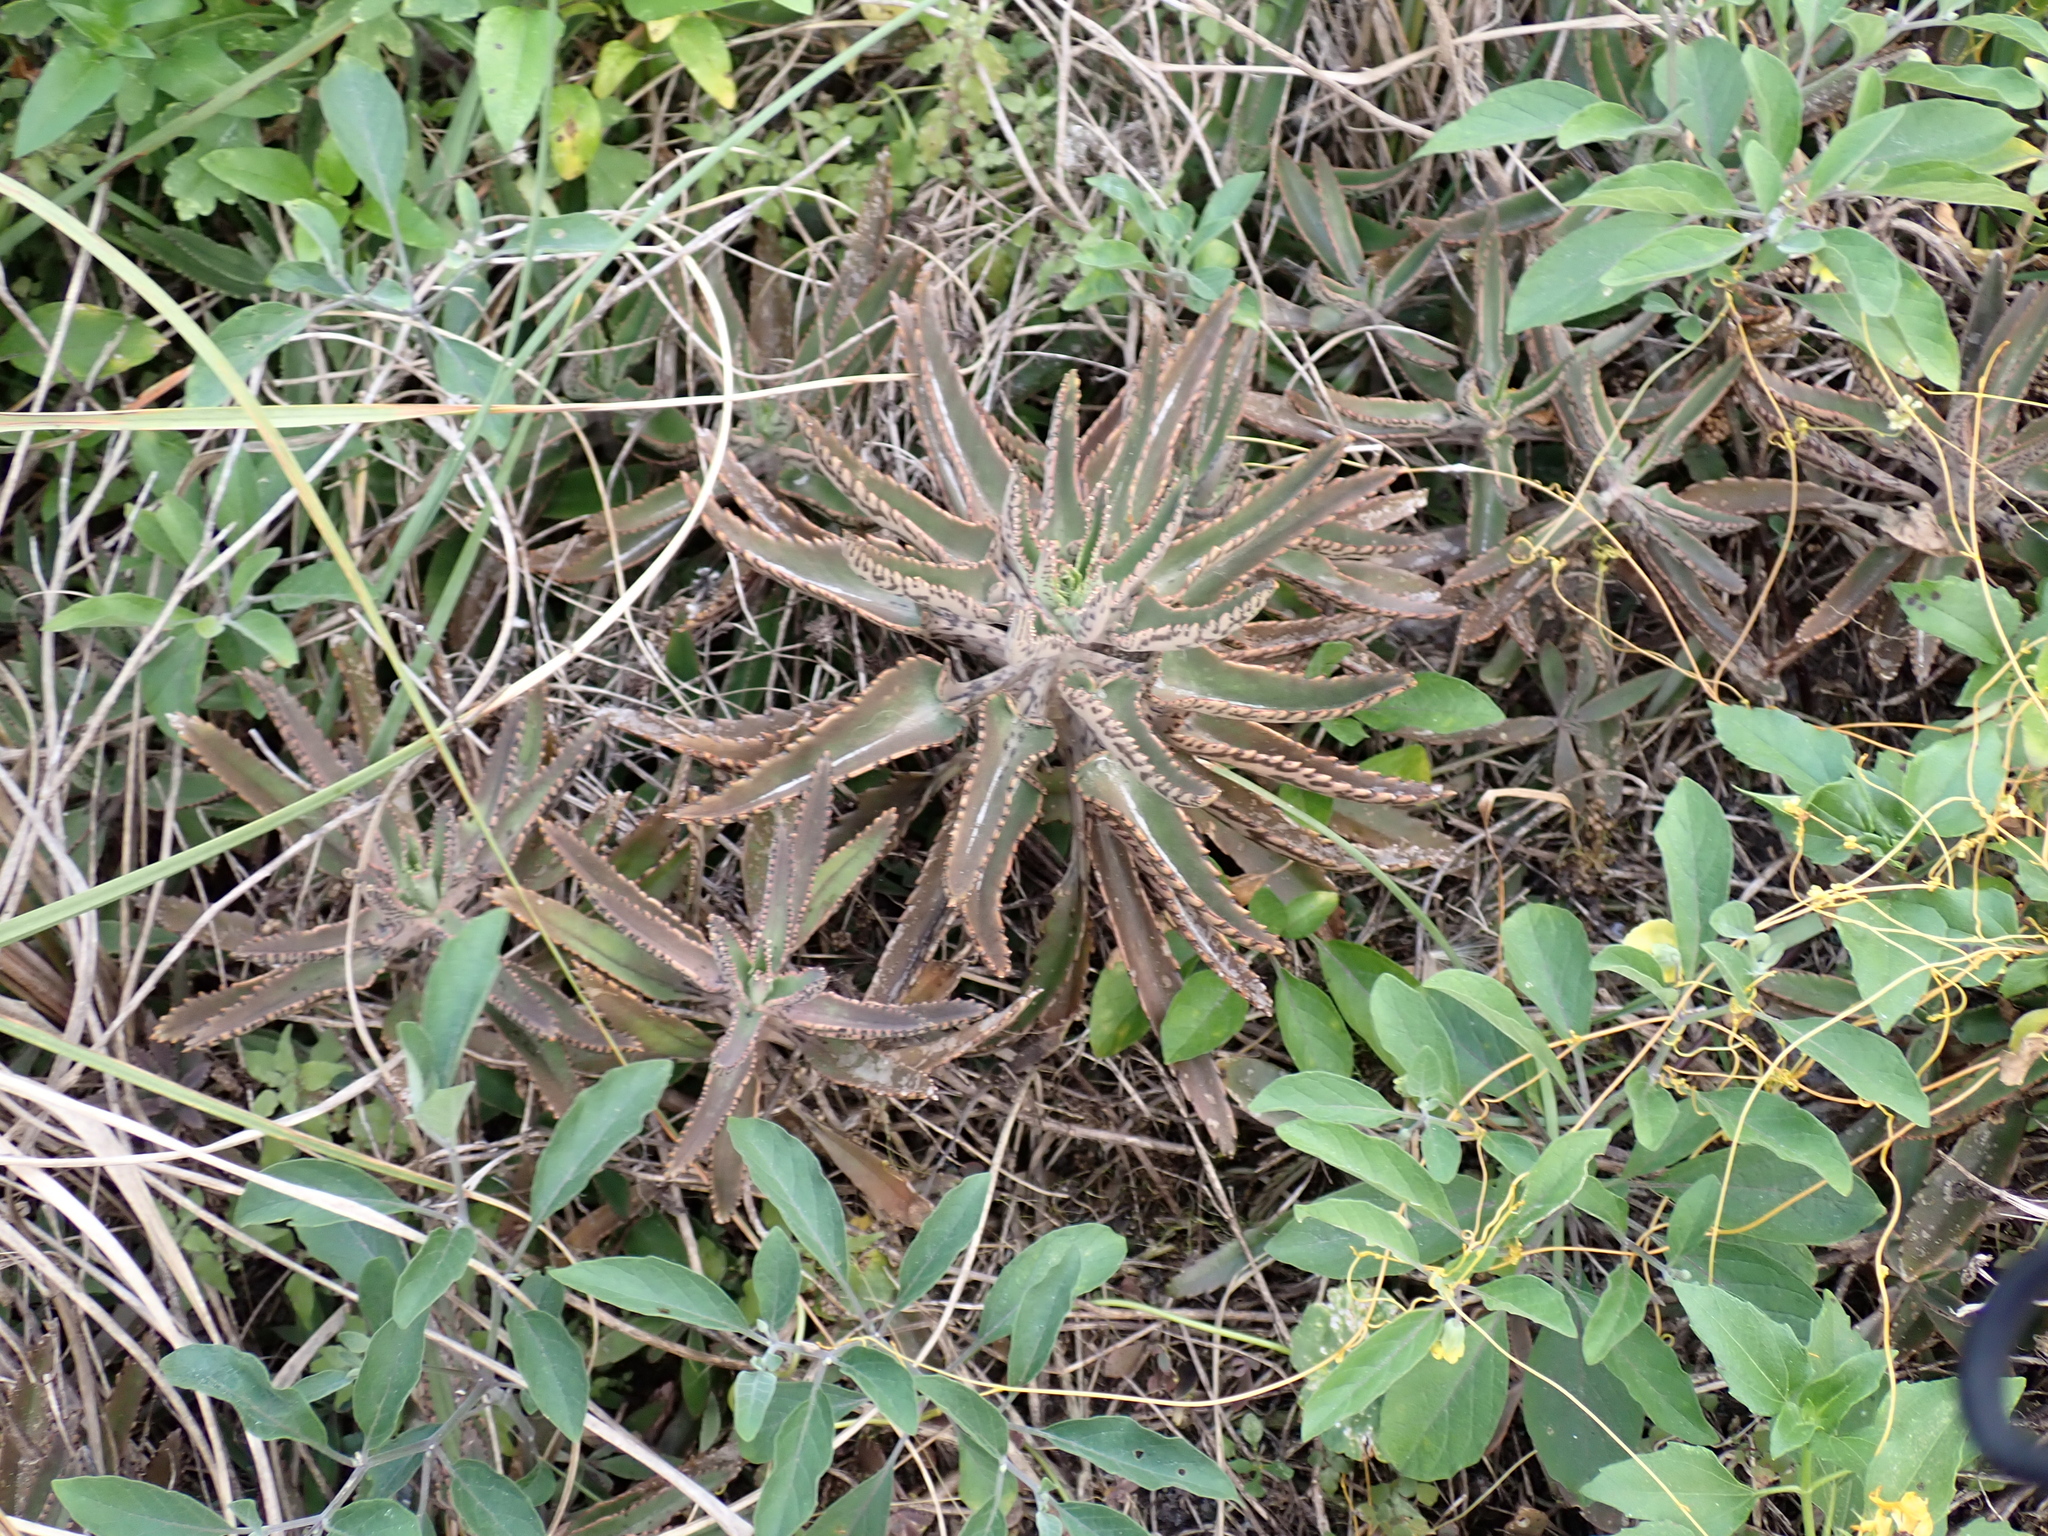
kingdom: Plantae
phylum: Tracheophyta
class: Magnoliopsida
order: Saxifragales
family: Crassulaceae
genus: Kalanchoe
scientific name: Kalanchoe houghtonii
